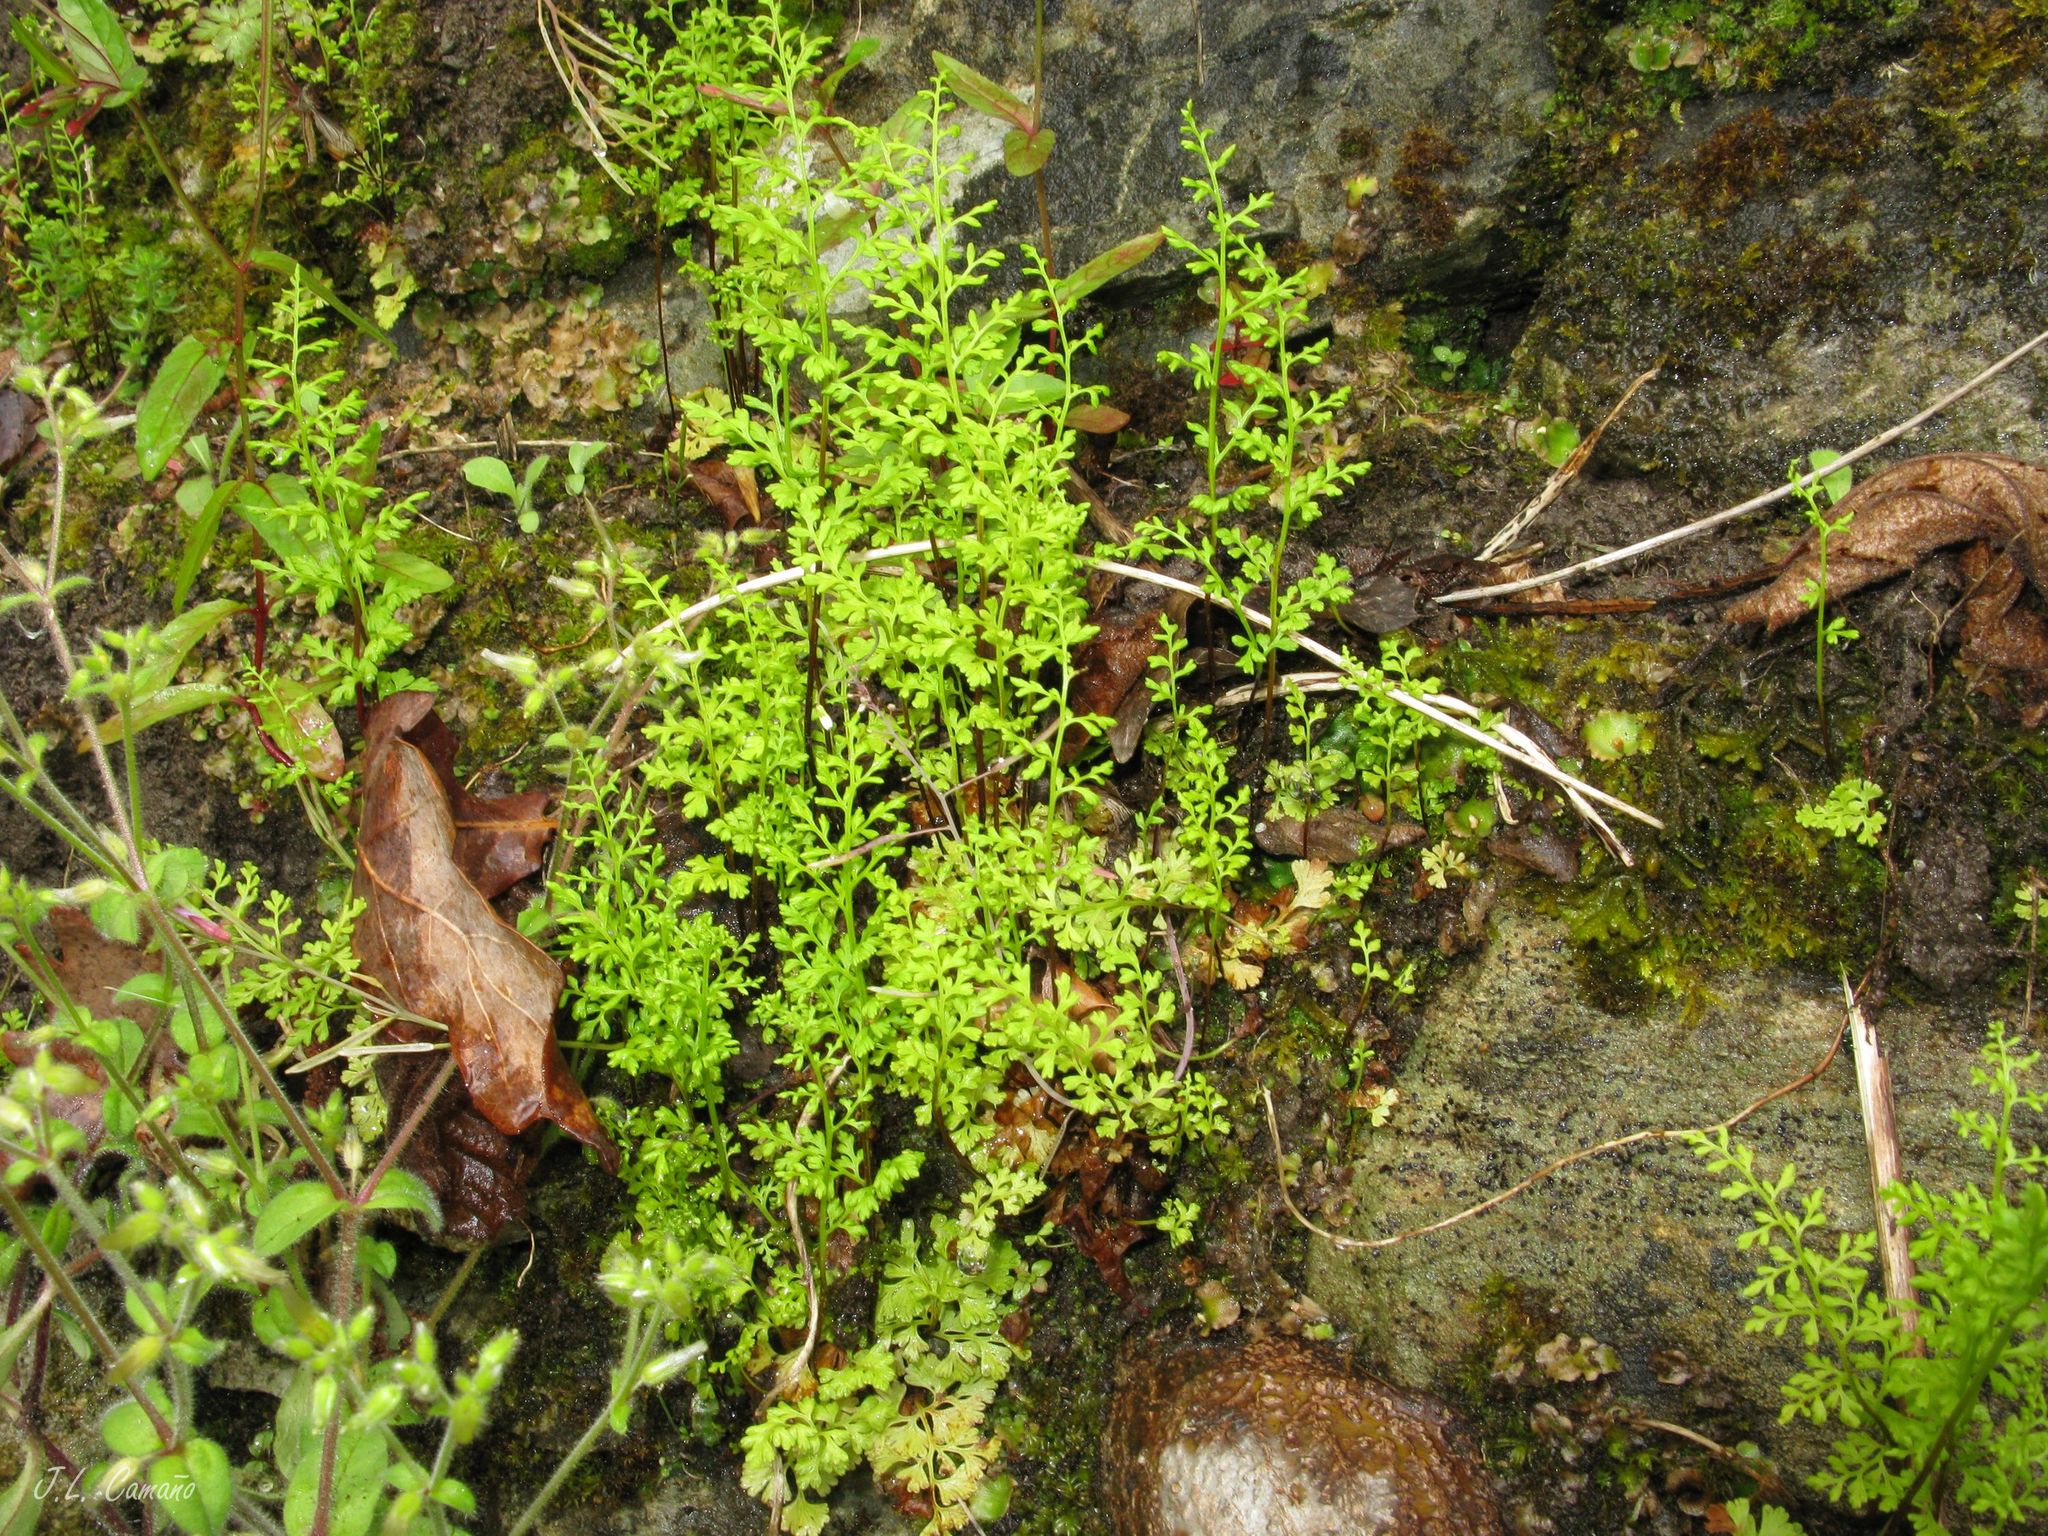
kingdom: Plantae
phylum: Tracheophyta
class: Polypodiopsida
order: Polypodiales
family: Pteridaceae
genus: Anogramma
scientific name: Anogramma leptophylla
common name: Jersey fern
